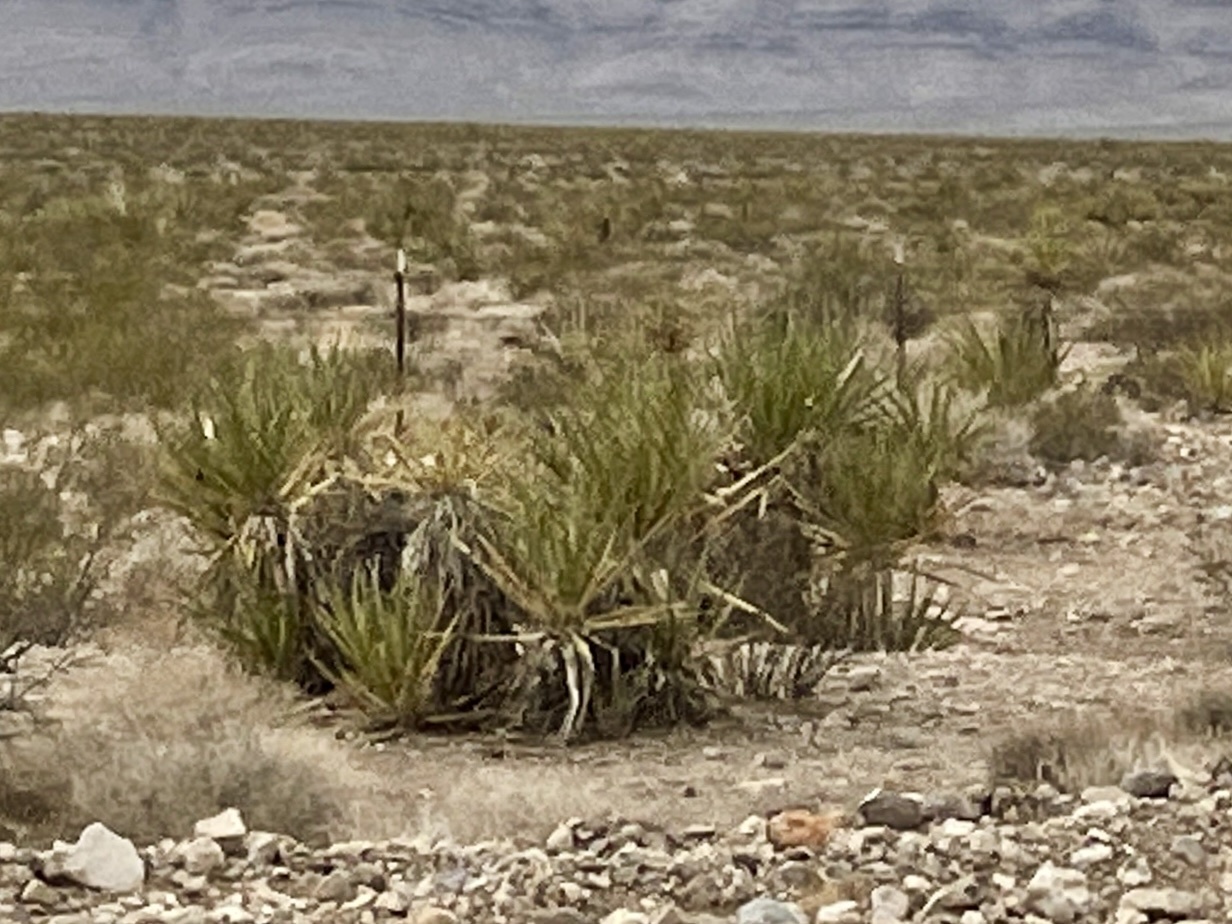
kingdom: Plantae
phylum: Tracheophyta
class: Liliopsida
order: Asparagales
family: Asparagaceae
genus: Yucca
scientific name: Yucca schidigera
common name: Mojave yucca
